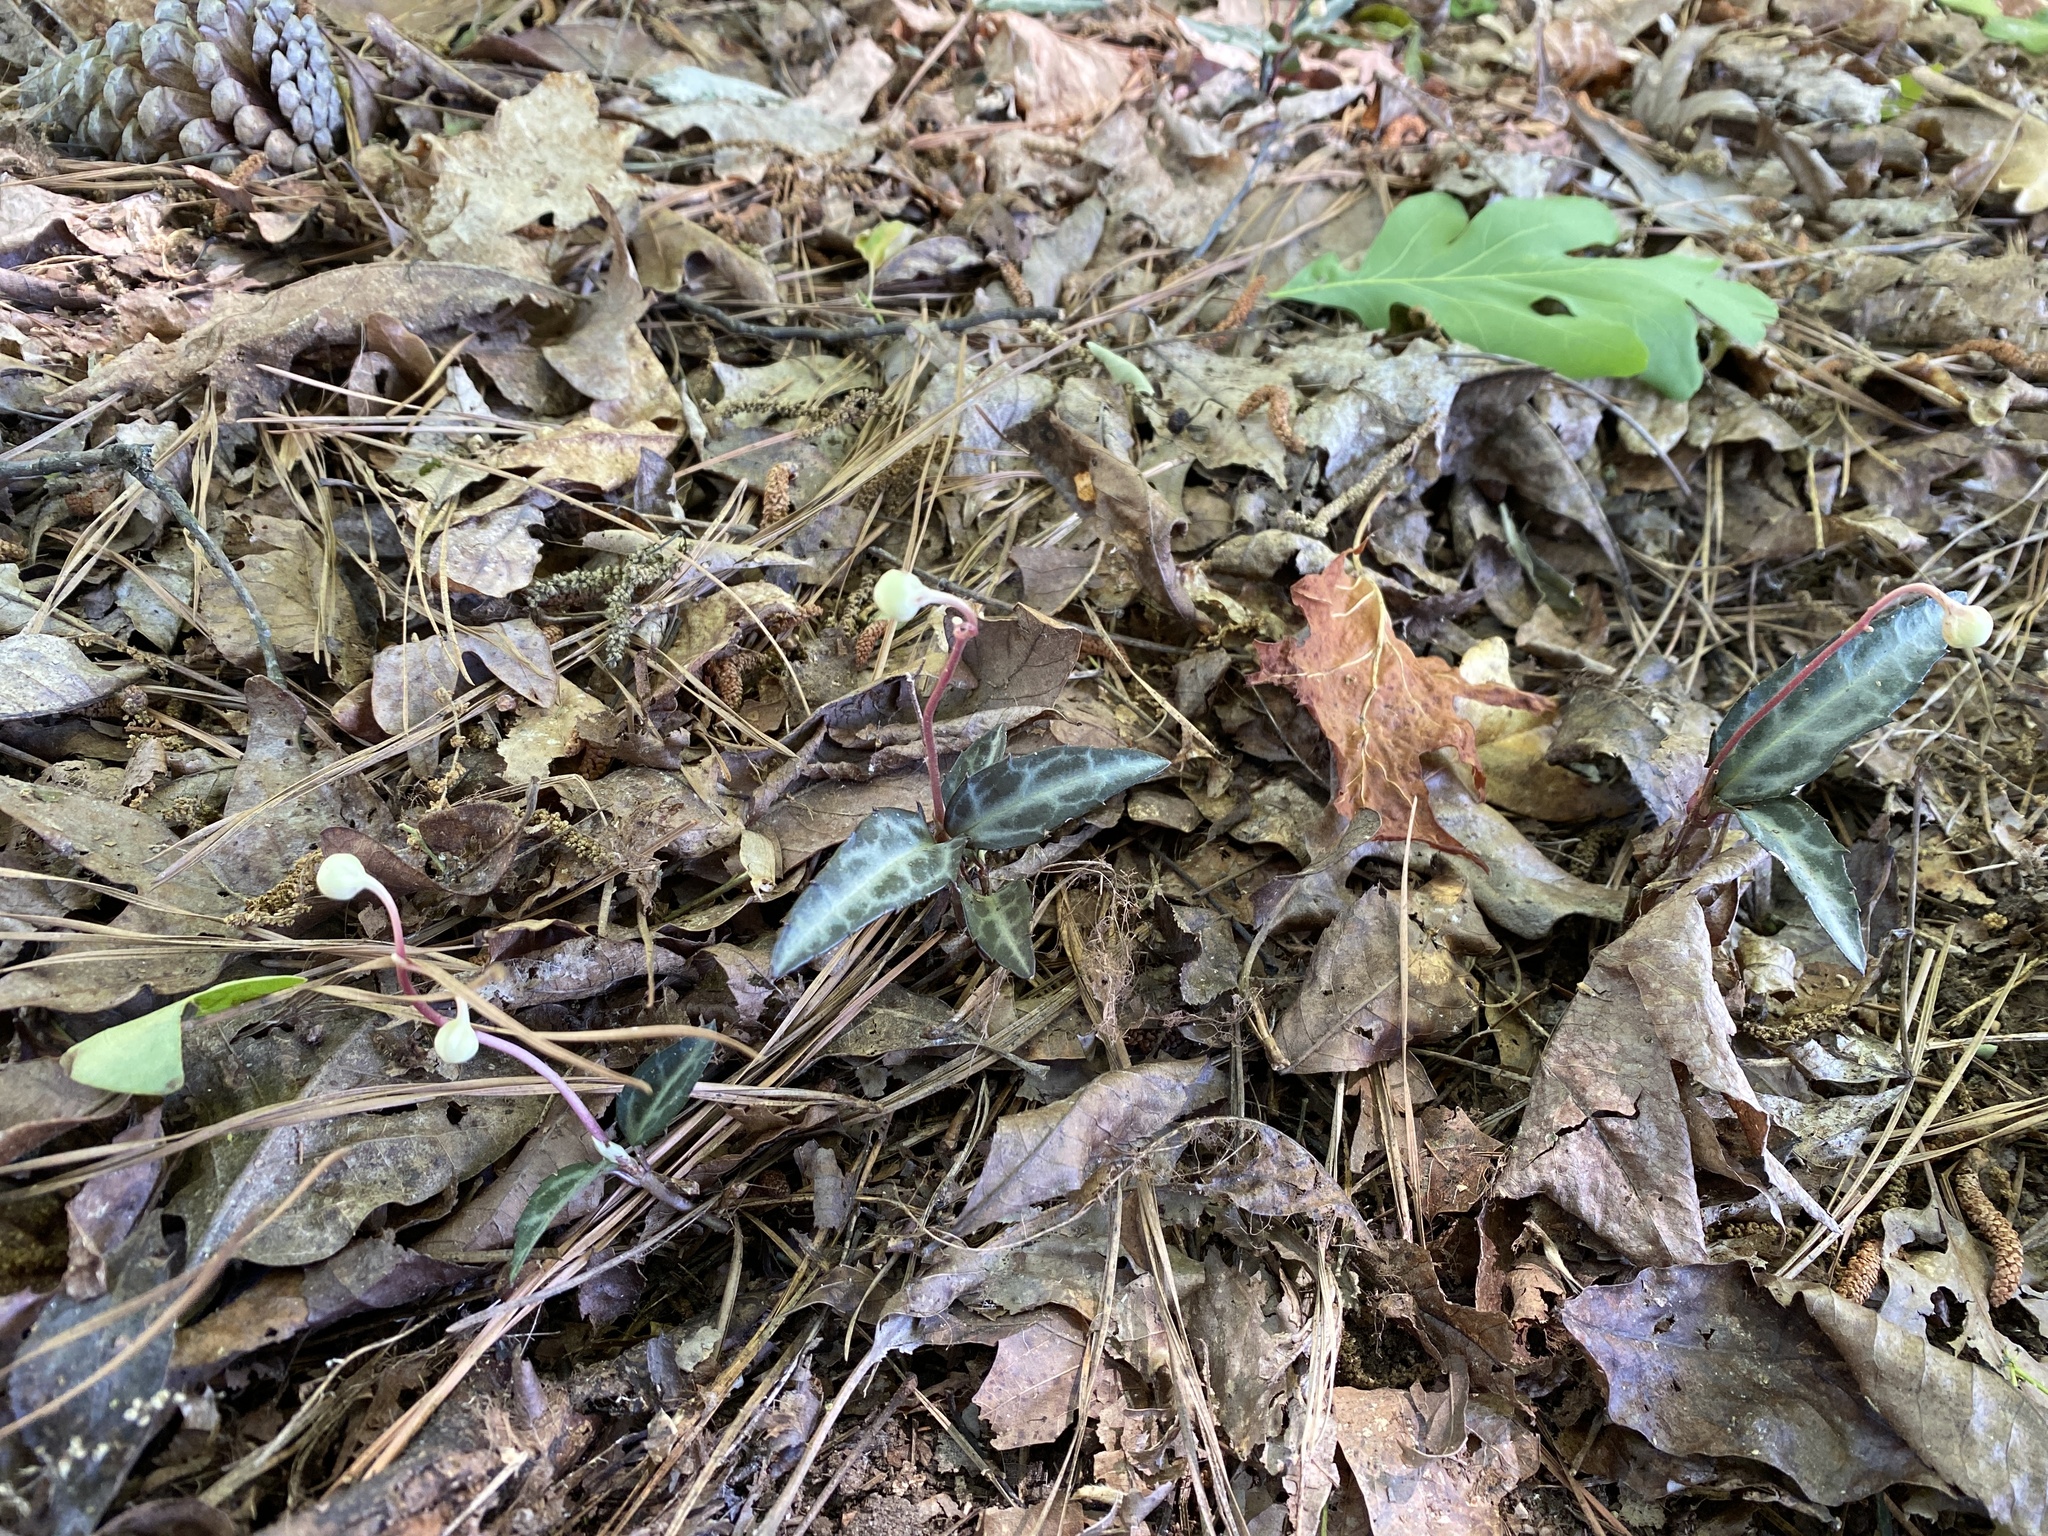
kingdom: Plantae
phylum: Tracheophyta
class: Magnoliopsida
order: Ericales
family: Ericaceae
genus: Chimaphila
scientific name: Chimaphila maculata
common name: Spotted pipsissewa
